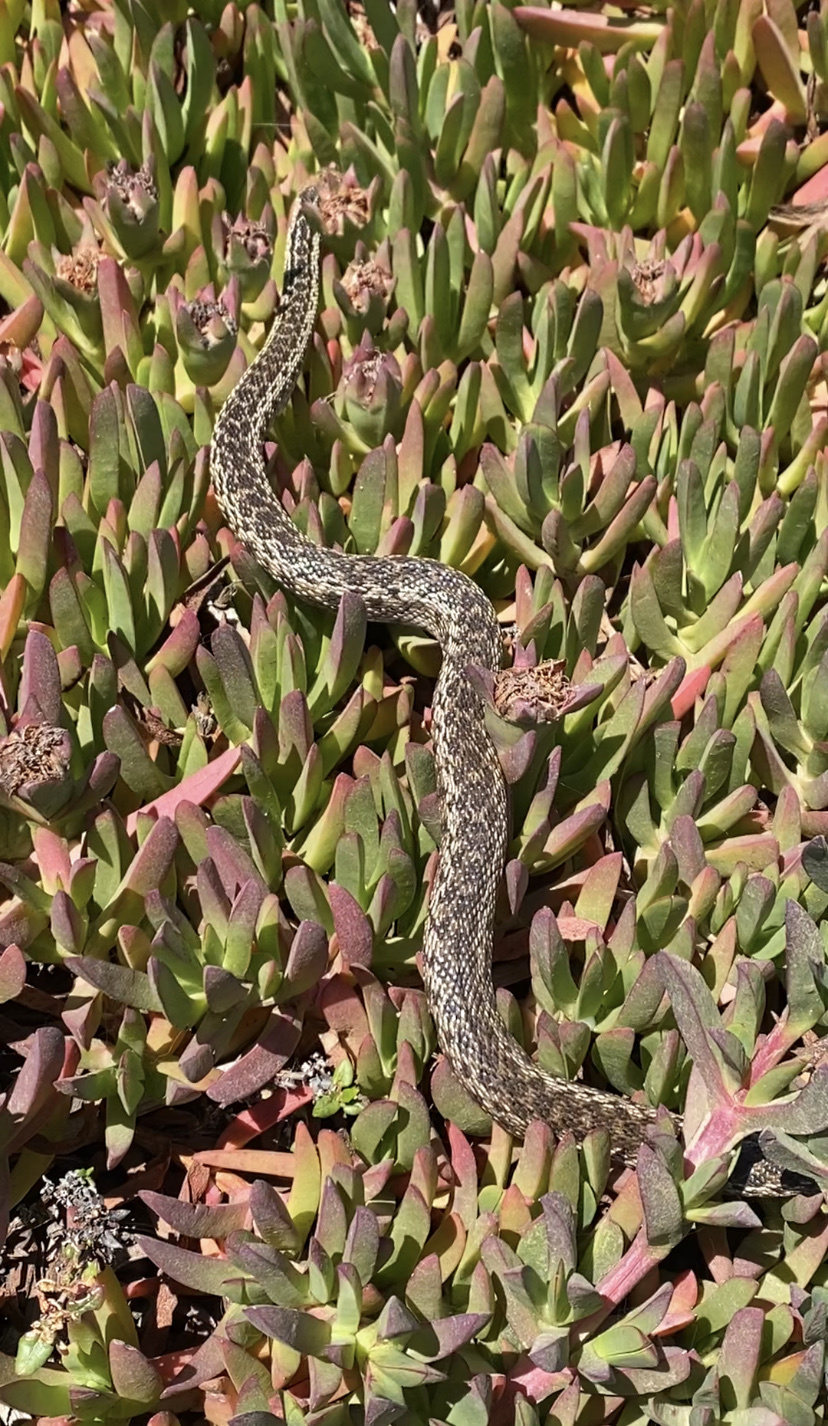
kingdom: Animalia
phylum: Chordata
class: Squamata
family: Colubridae
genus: Pituophis
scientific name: Pituophis catenifer
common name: Gopher snake
